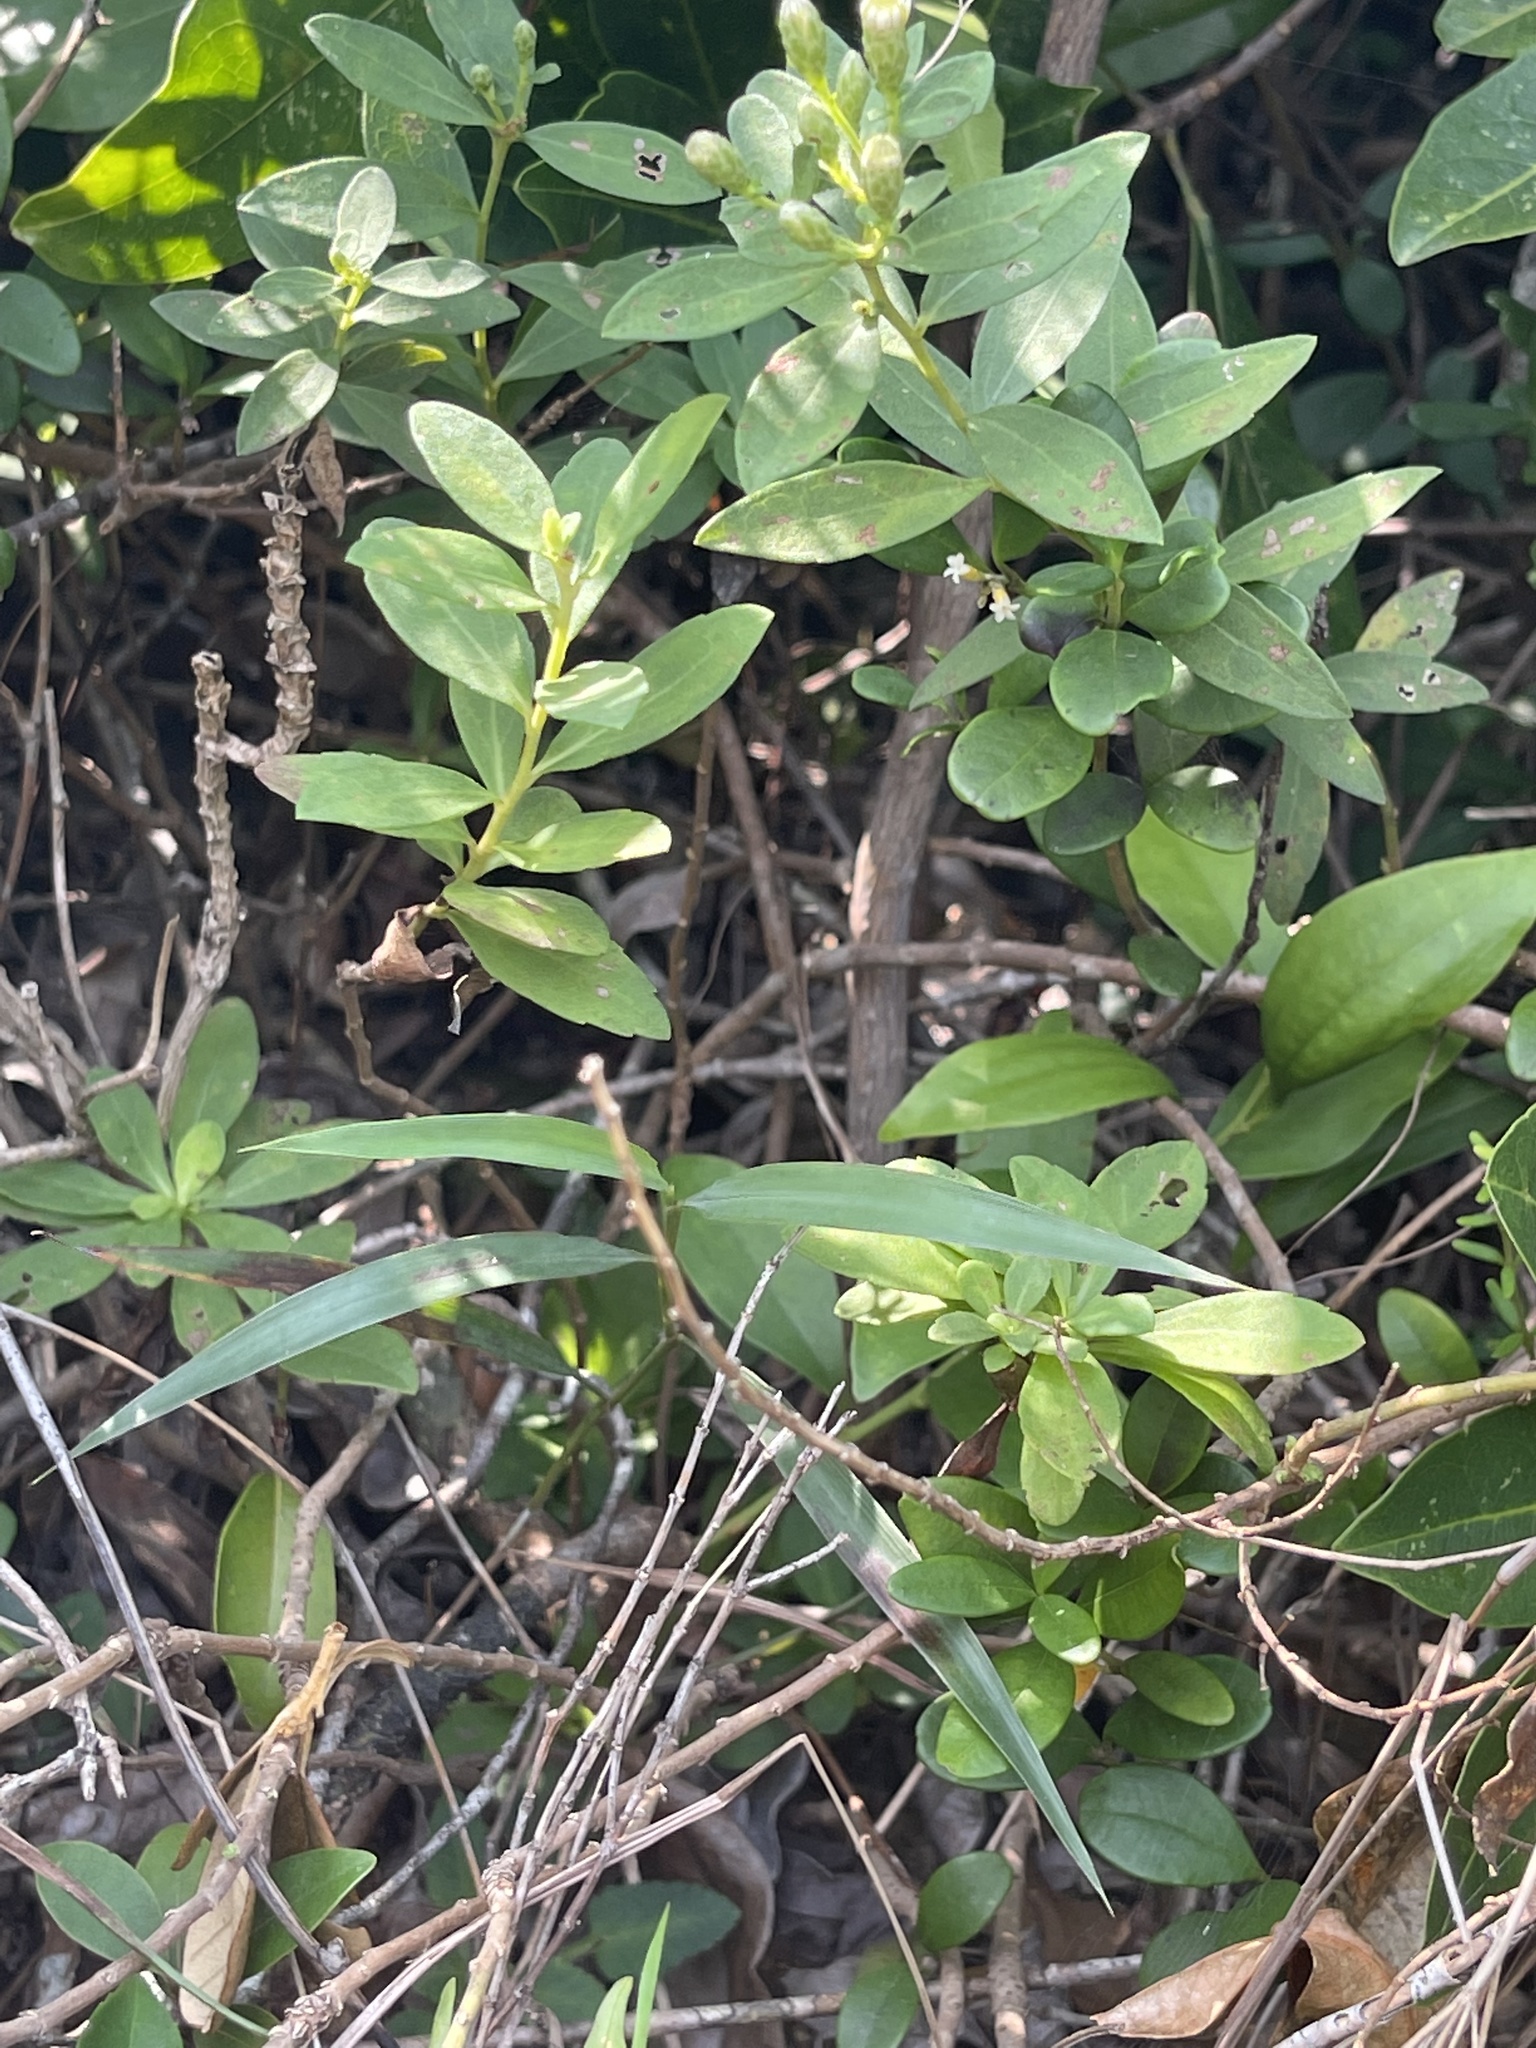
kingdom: Plantae
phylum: Tracheophyta
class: Magnoliopsida
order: Asterales
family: Asteraceae
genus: Aster
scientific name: Aster baccharoides
